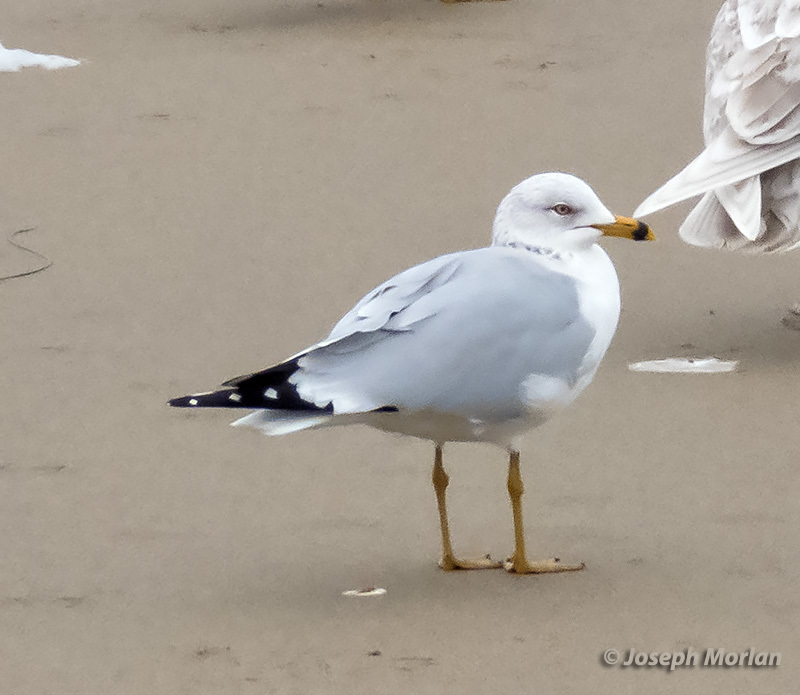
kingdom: Animalia
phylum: Chordata
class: Aves
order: Charadriiformes
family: Laridae
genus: Larus
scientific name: Larus delawarensis
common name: Ring-billed gull
